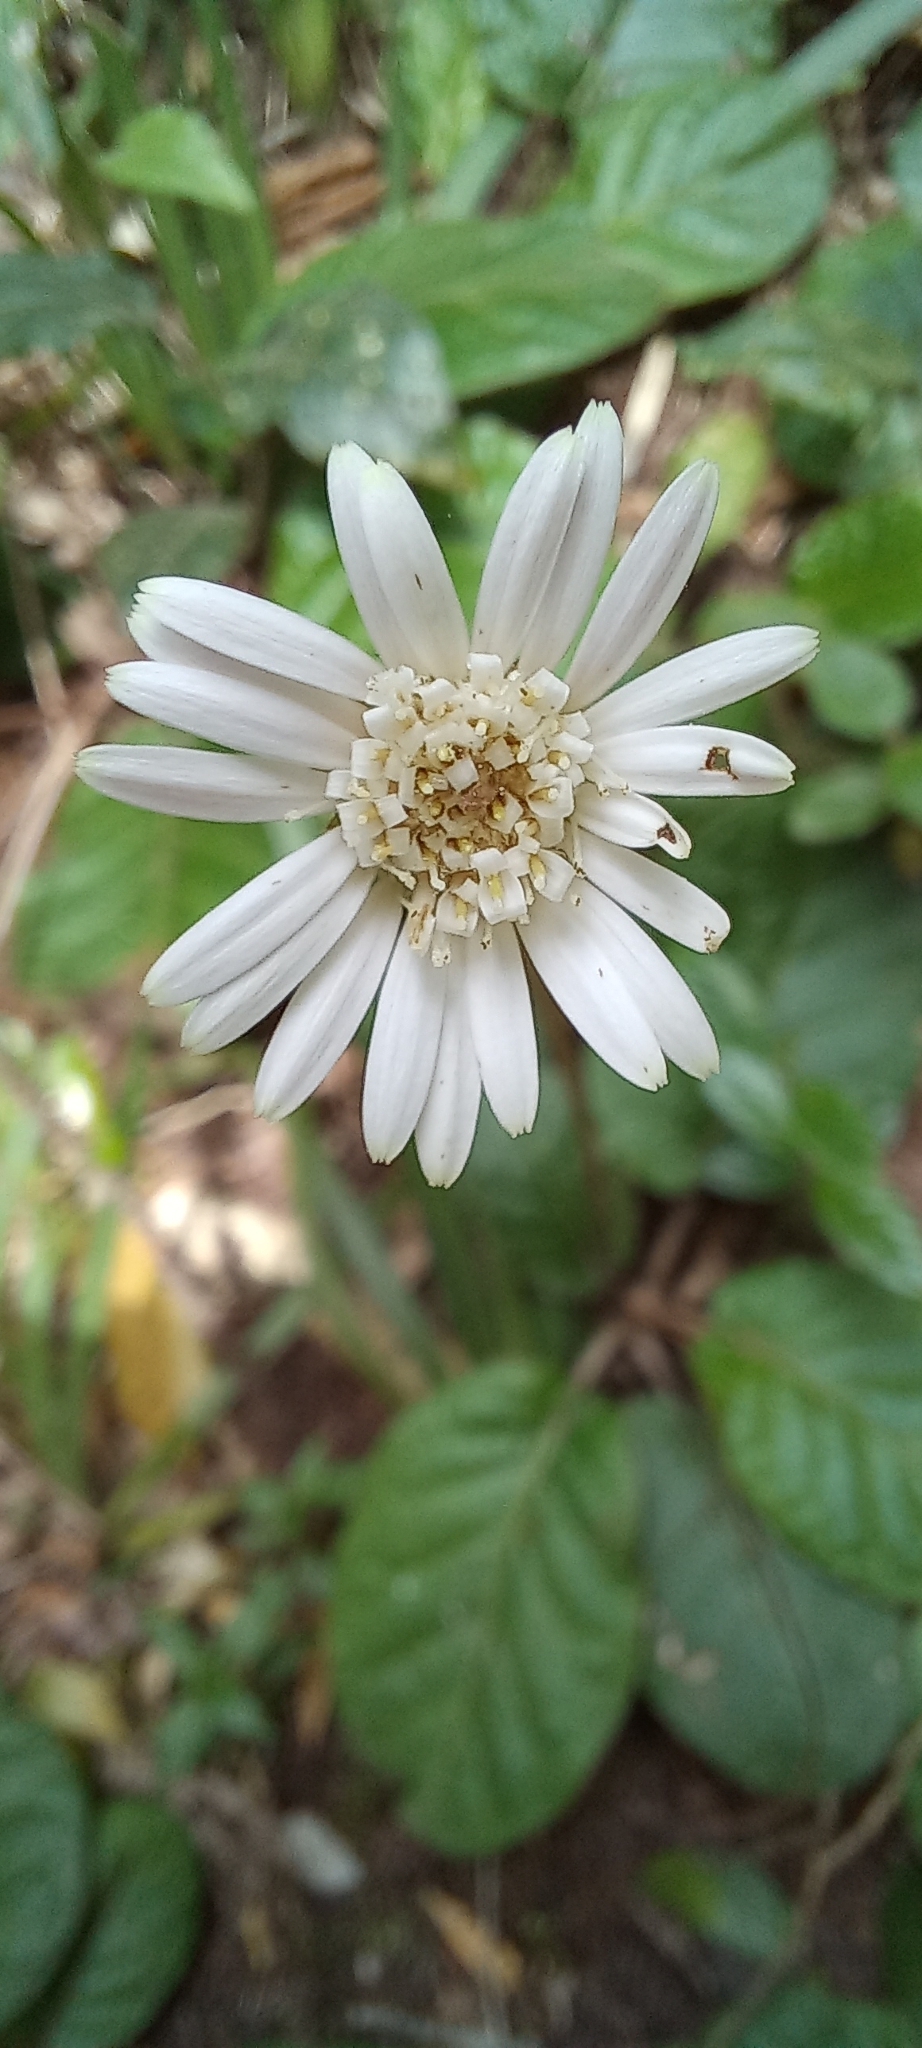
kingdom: Plantae
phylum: Tracheophyta
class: Magnoliopsida
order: Asterales
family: Asteraceae
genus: Piloselloides
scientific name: Piloselloides cordata
